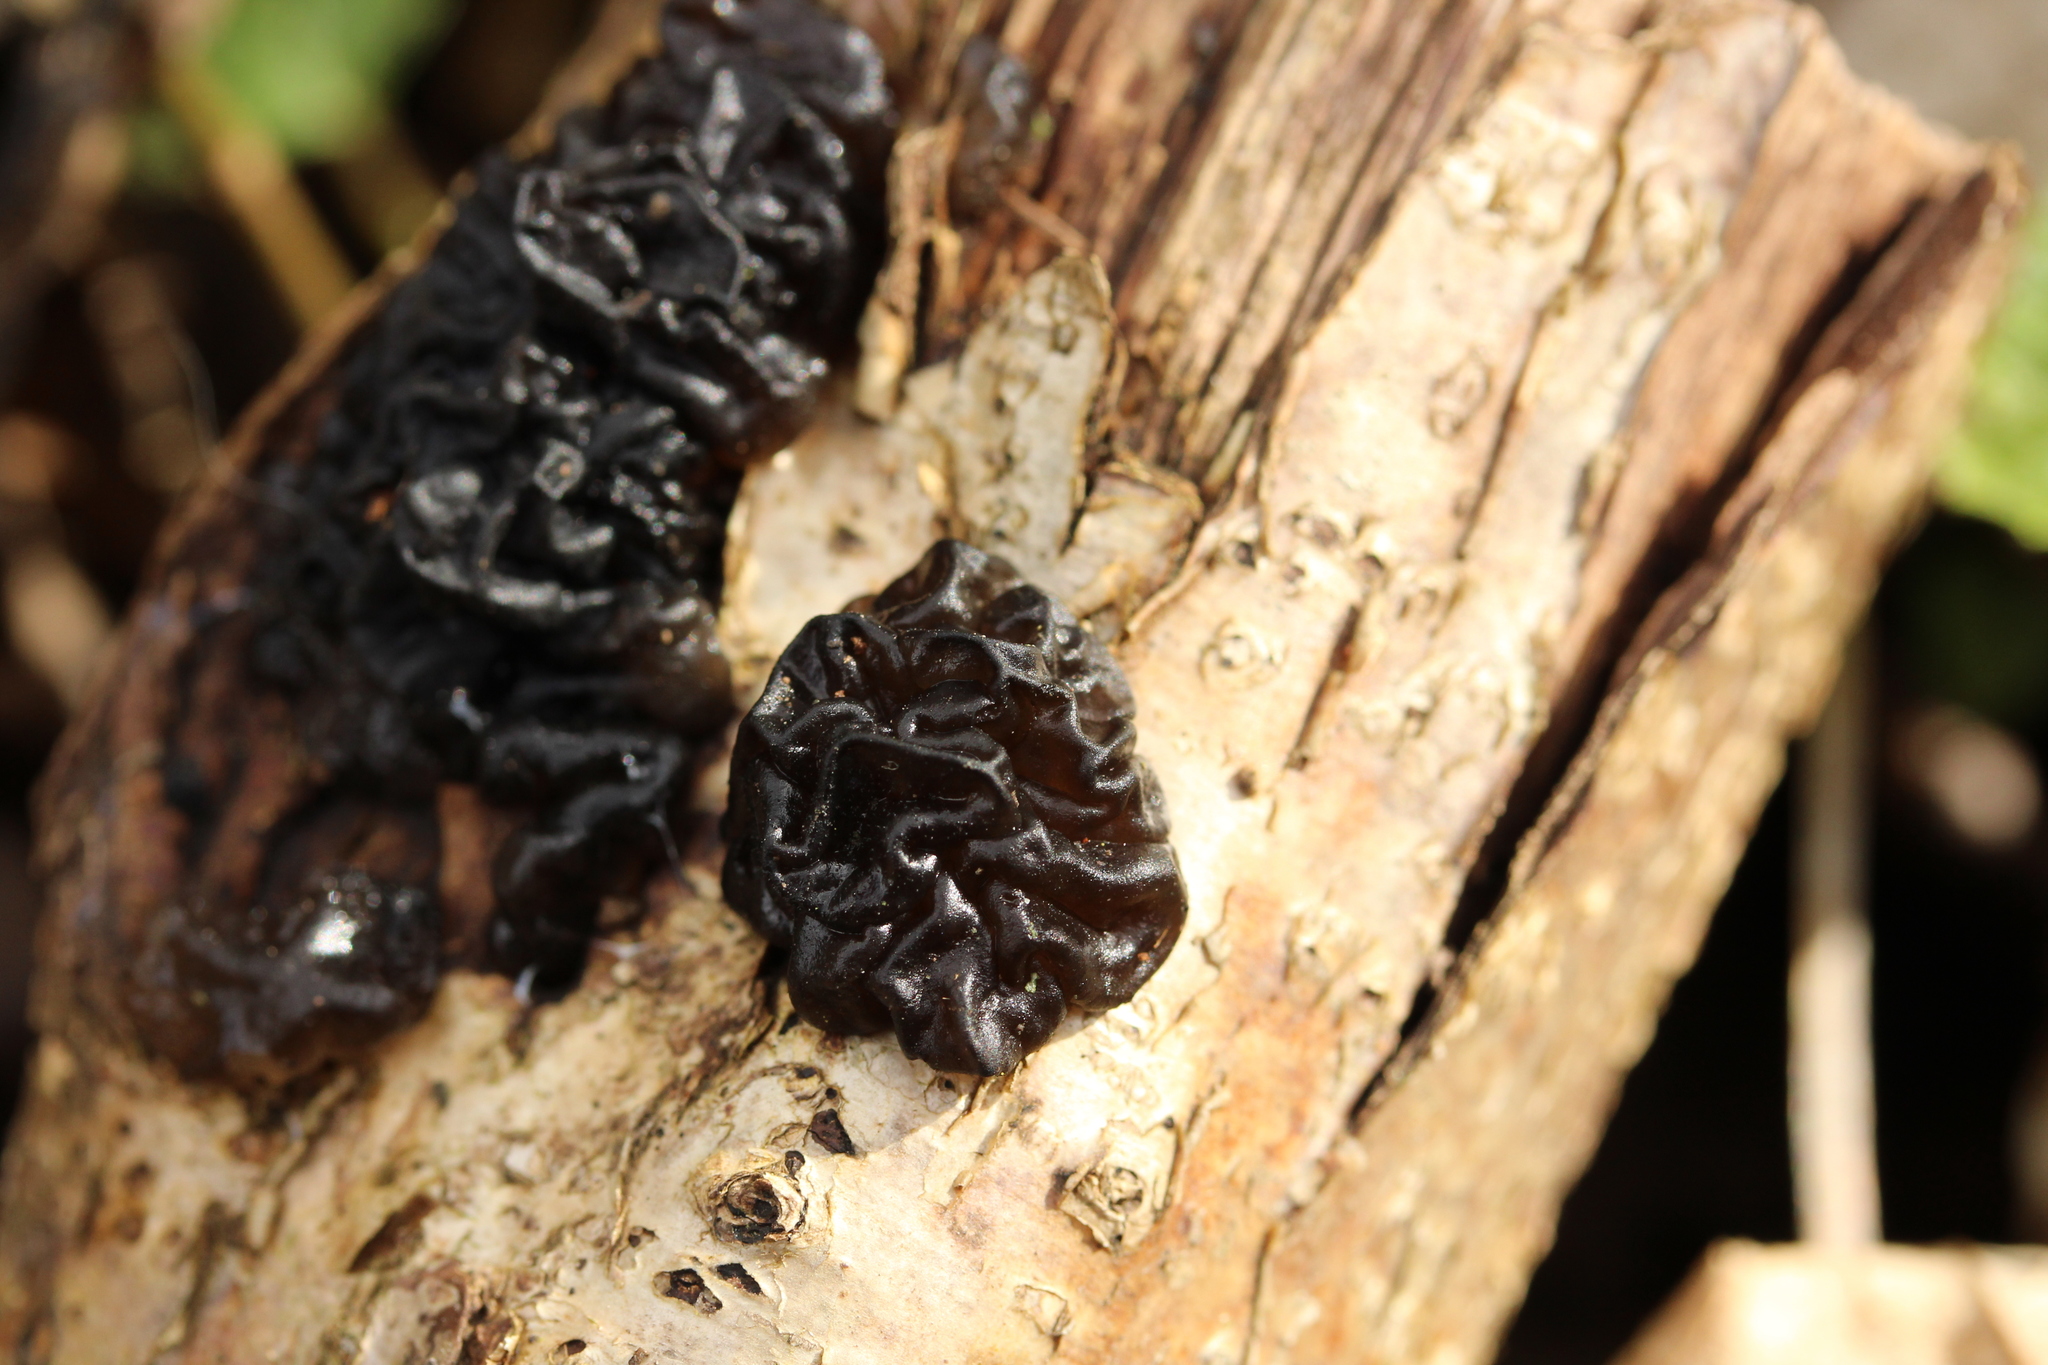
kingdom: Fungi
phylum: Basidiomycota
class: Agaricomycetes
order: Auriculariales
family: Auriculariaceae
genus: Exidia
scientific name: Exidia nigricans
